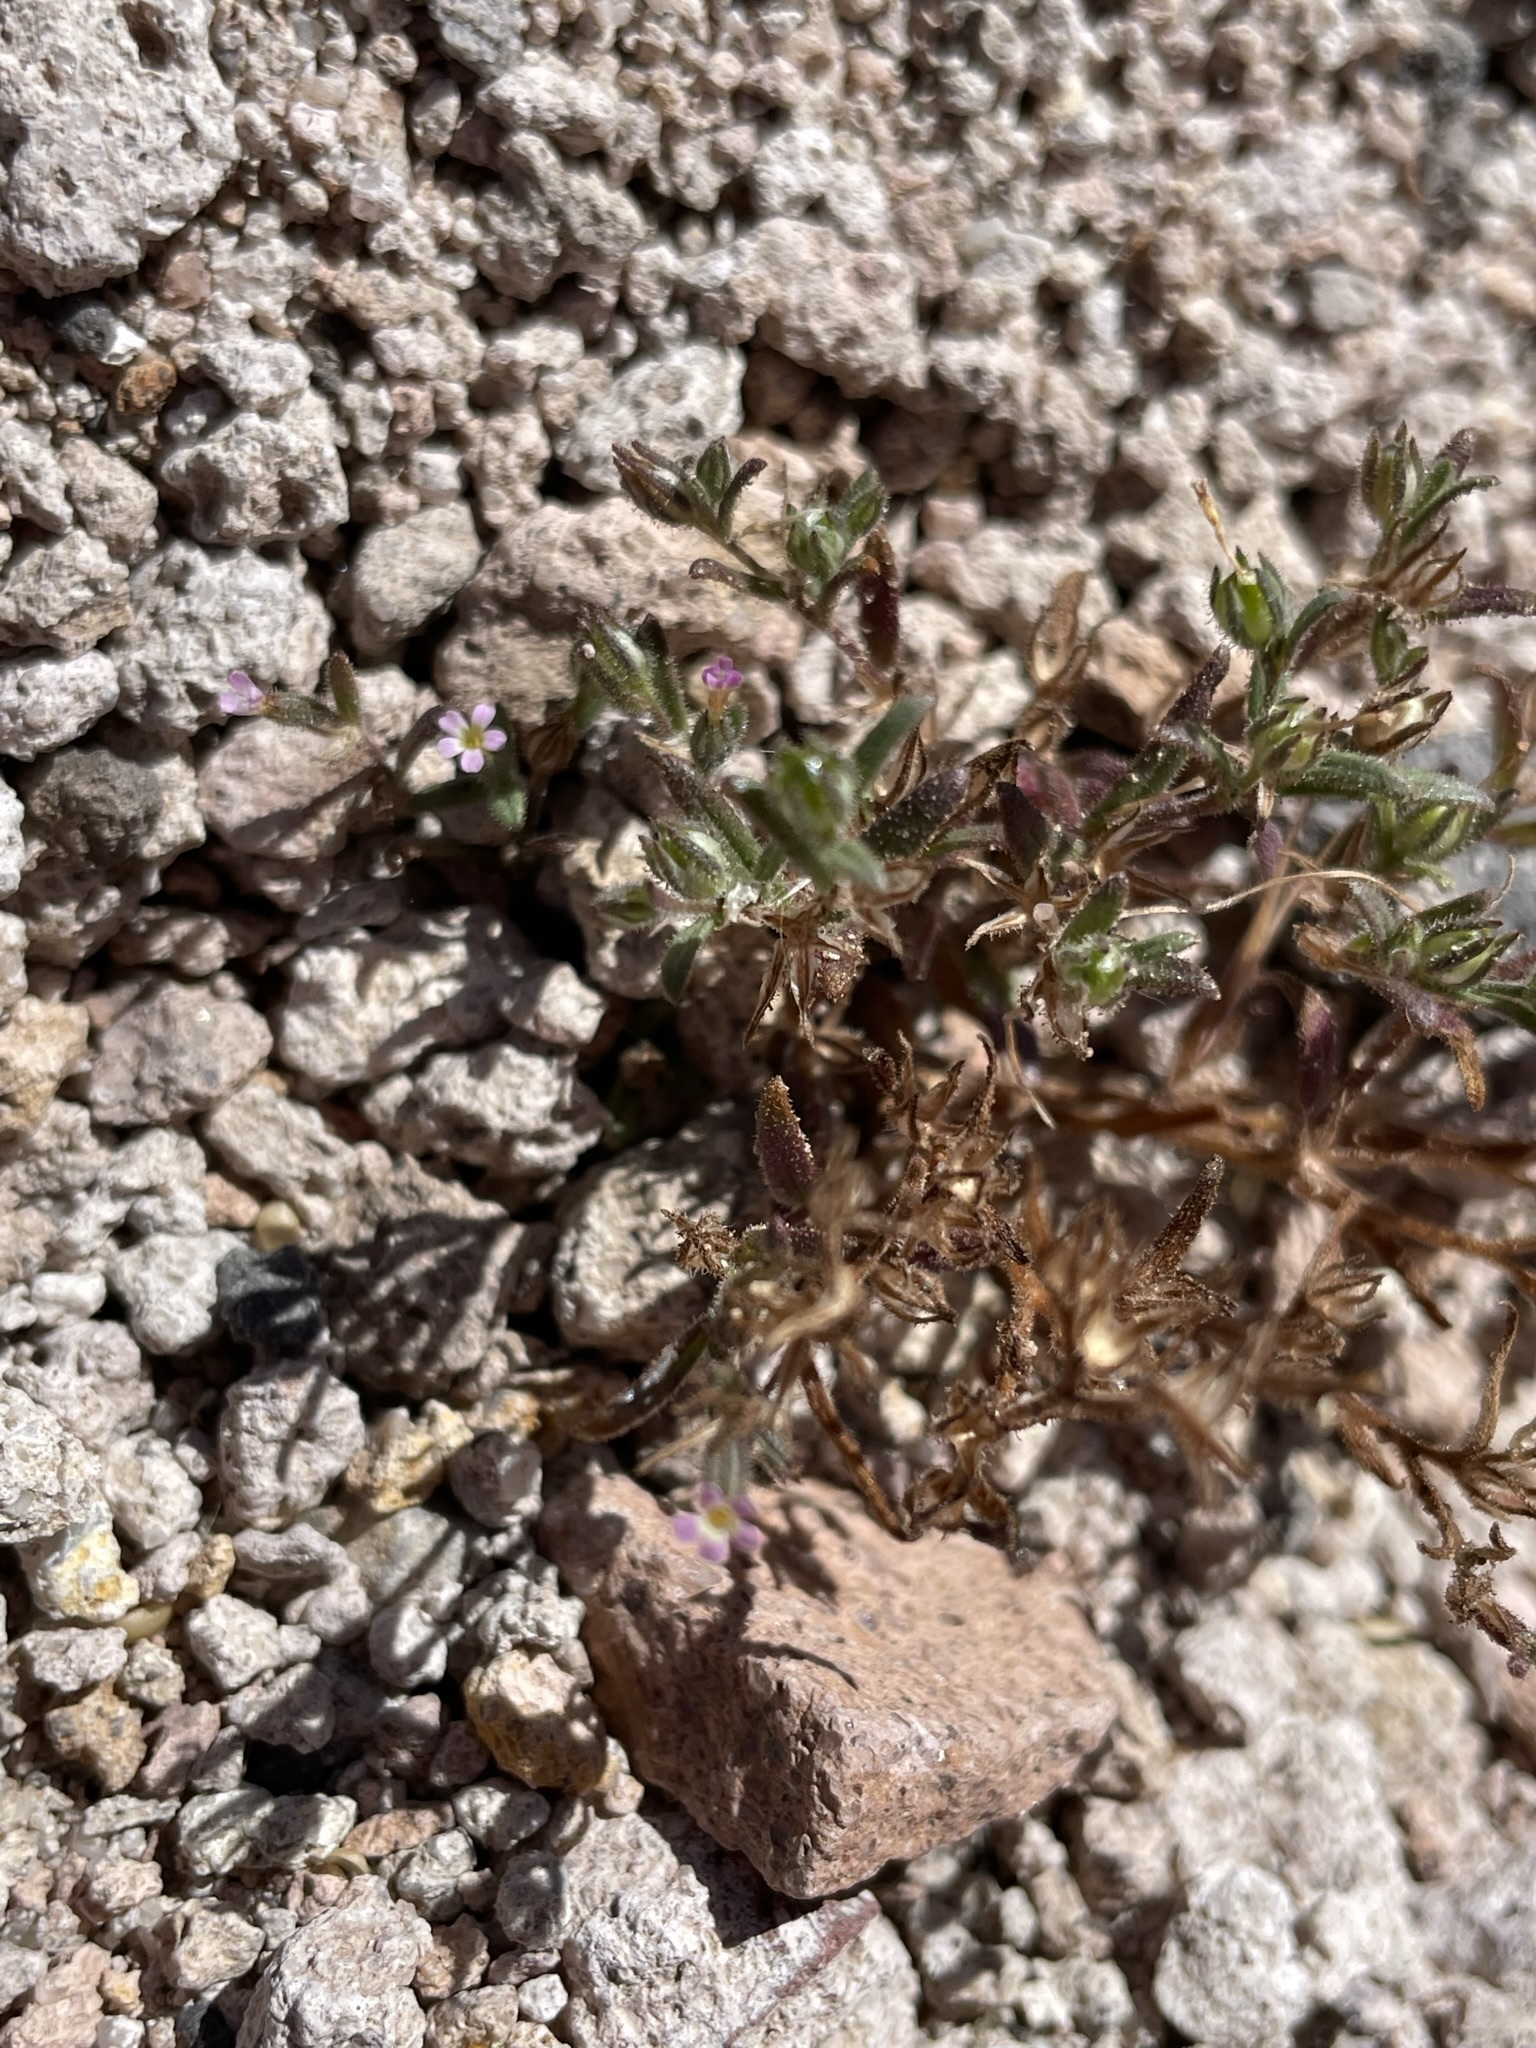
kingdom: Plantae
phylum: Tracheophyta
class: Magnoliopsida
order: Ericales
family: Polemoniaceae
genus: Phlox
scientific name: Phlox gracilis
